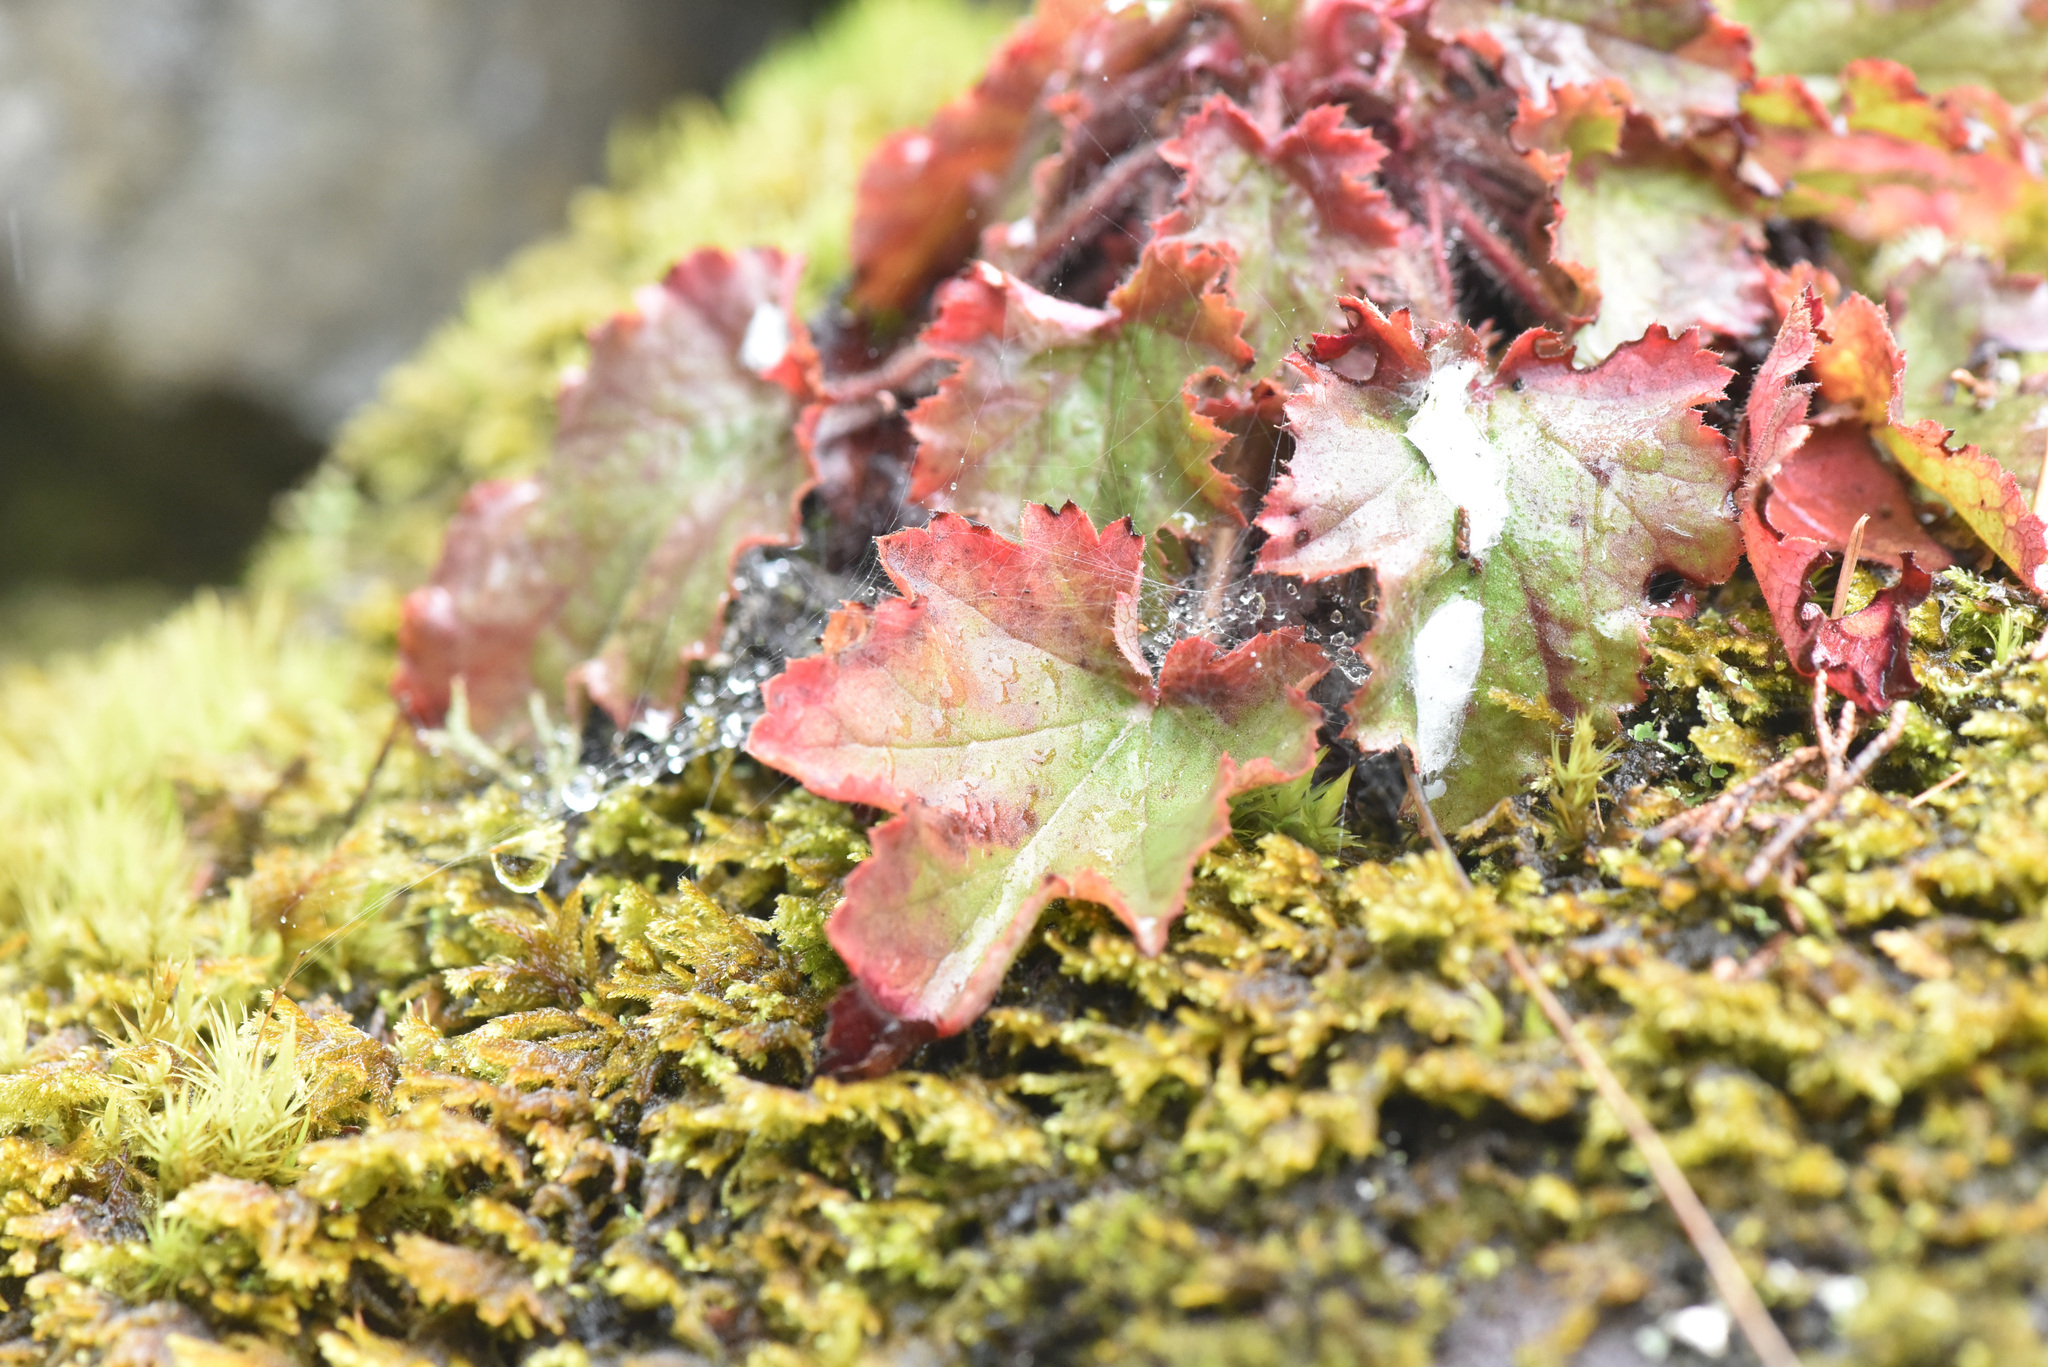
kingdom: Plantae
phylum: Tracheophyta
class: Magnoliopsida
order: Saxifragales
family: Saxifragaceae
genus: Heuchera
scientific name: Heuchera micrantha
